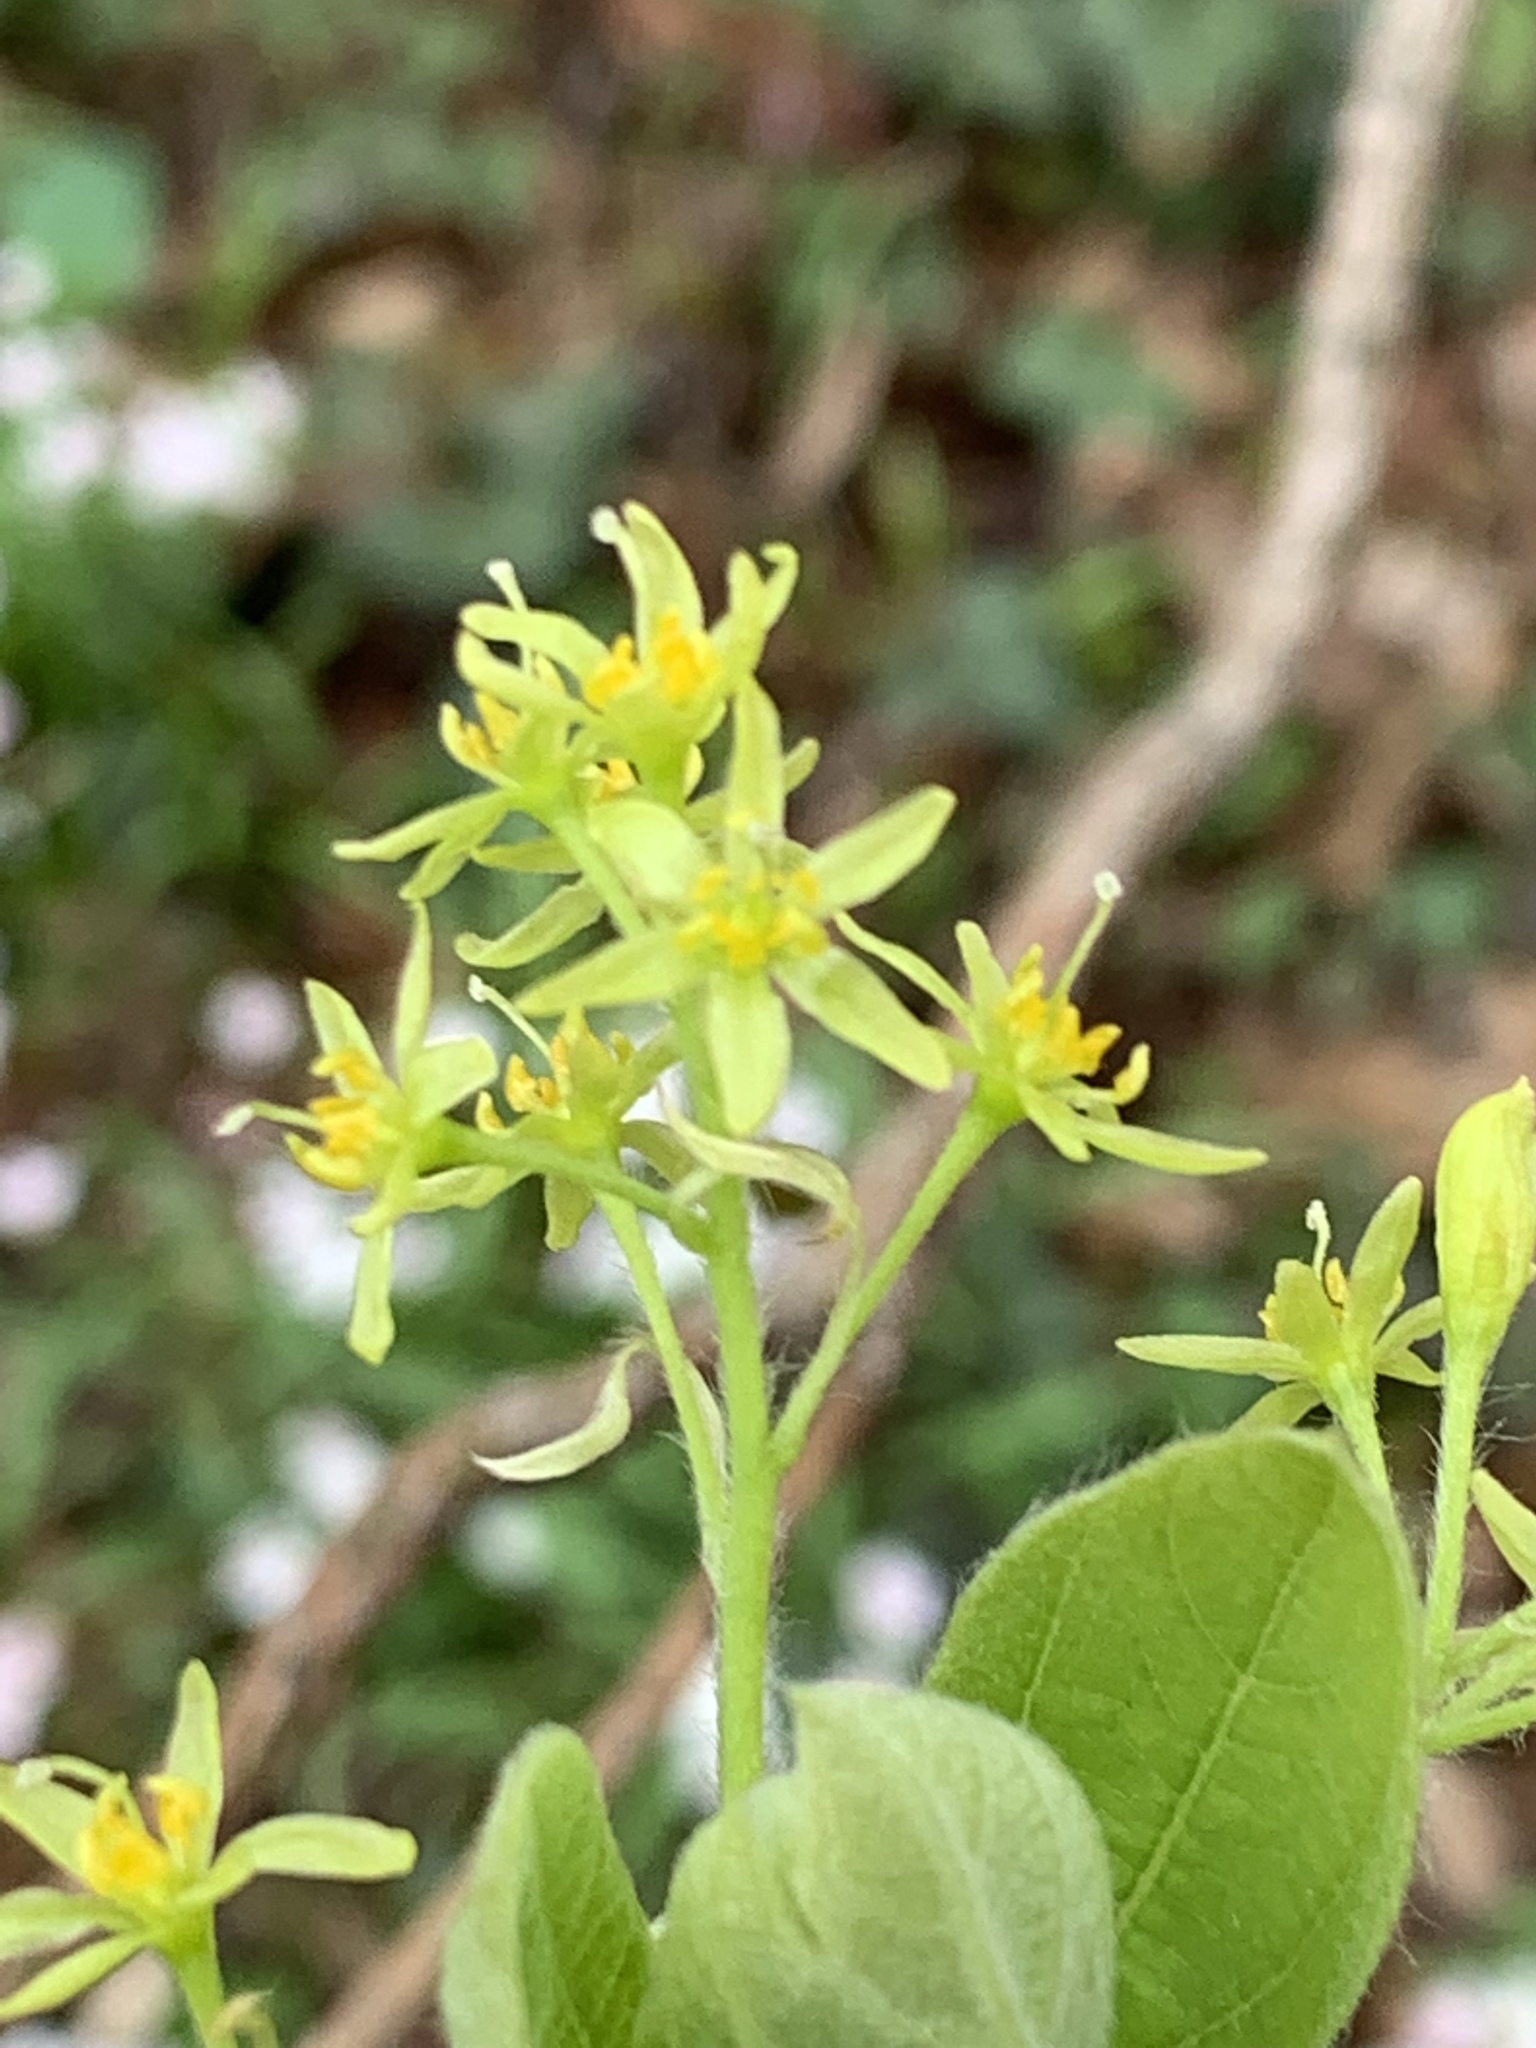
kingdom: Plantae
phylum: Tracheophyta
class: Magnoliopsida
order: Laurales
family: Lauraceae
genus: Sassafras
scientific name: Sassafras albidum
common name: Sassafras
